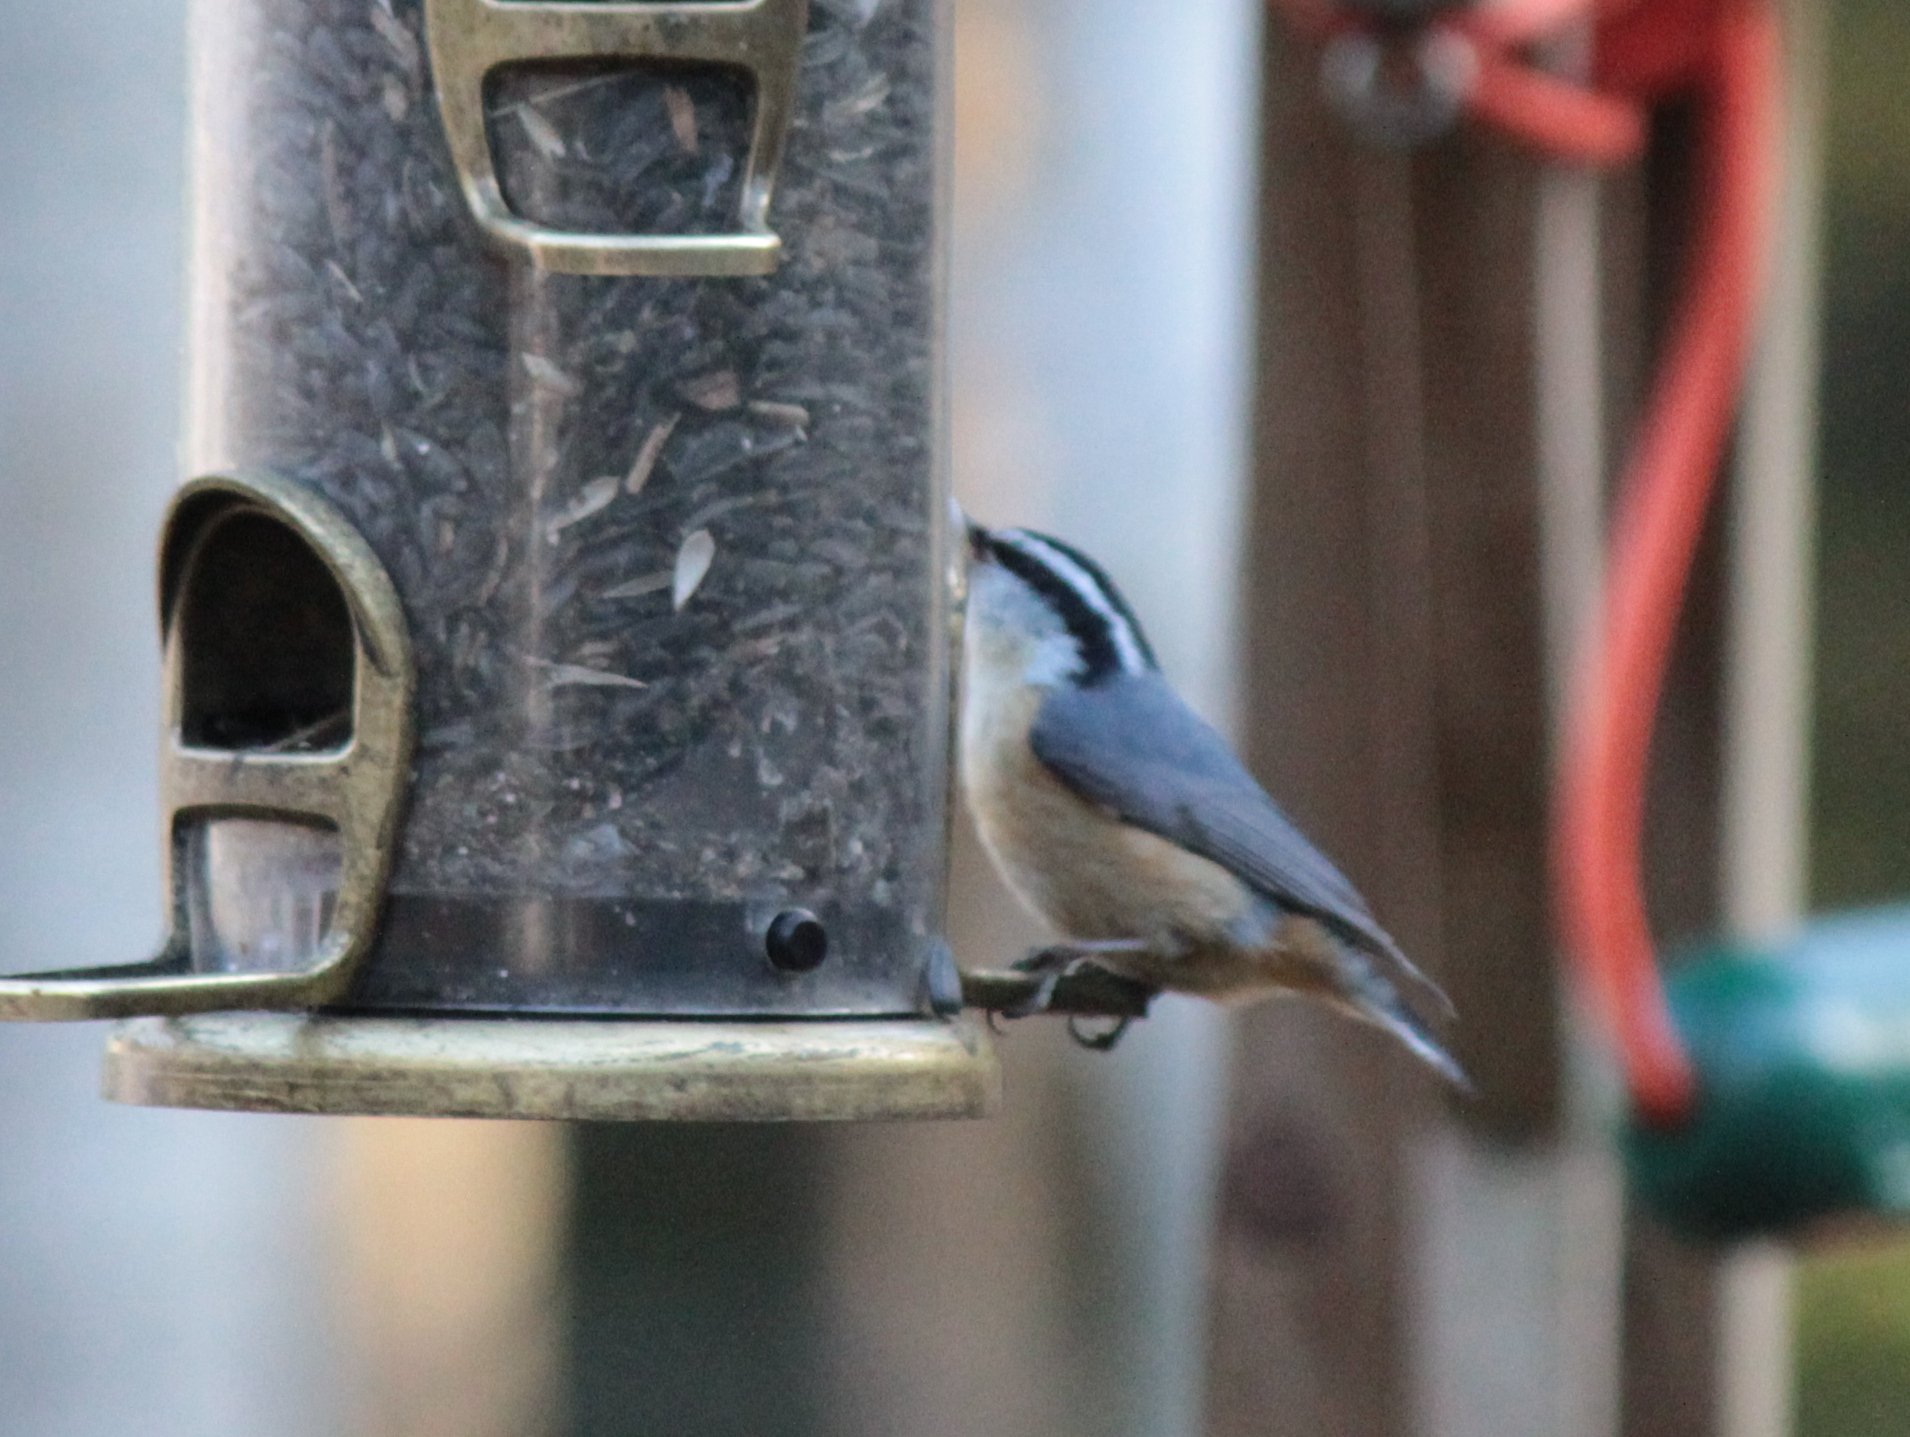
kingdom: Animalia
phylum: Chordata
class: Aves
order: Passeriformes
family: Sittidae
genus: Sitta
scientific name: Sitta canadensis
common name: Red-breasted nuthatch
